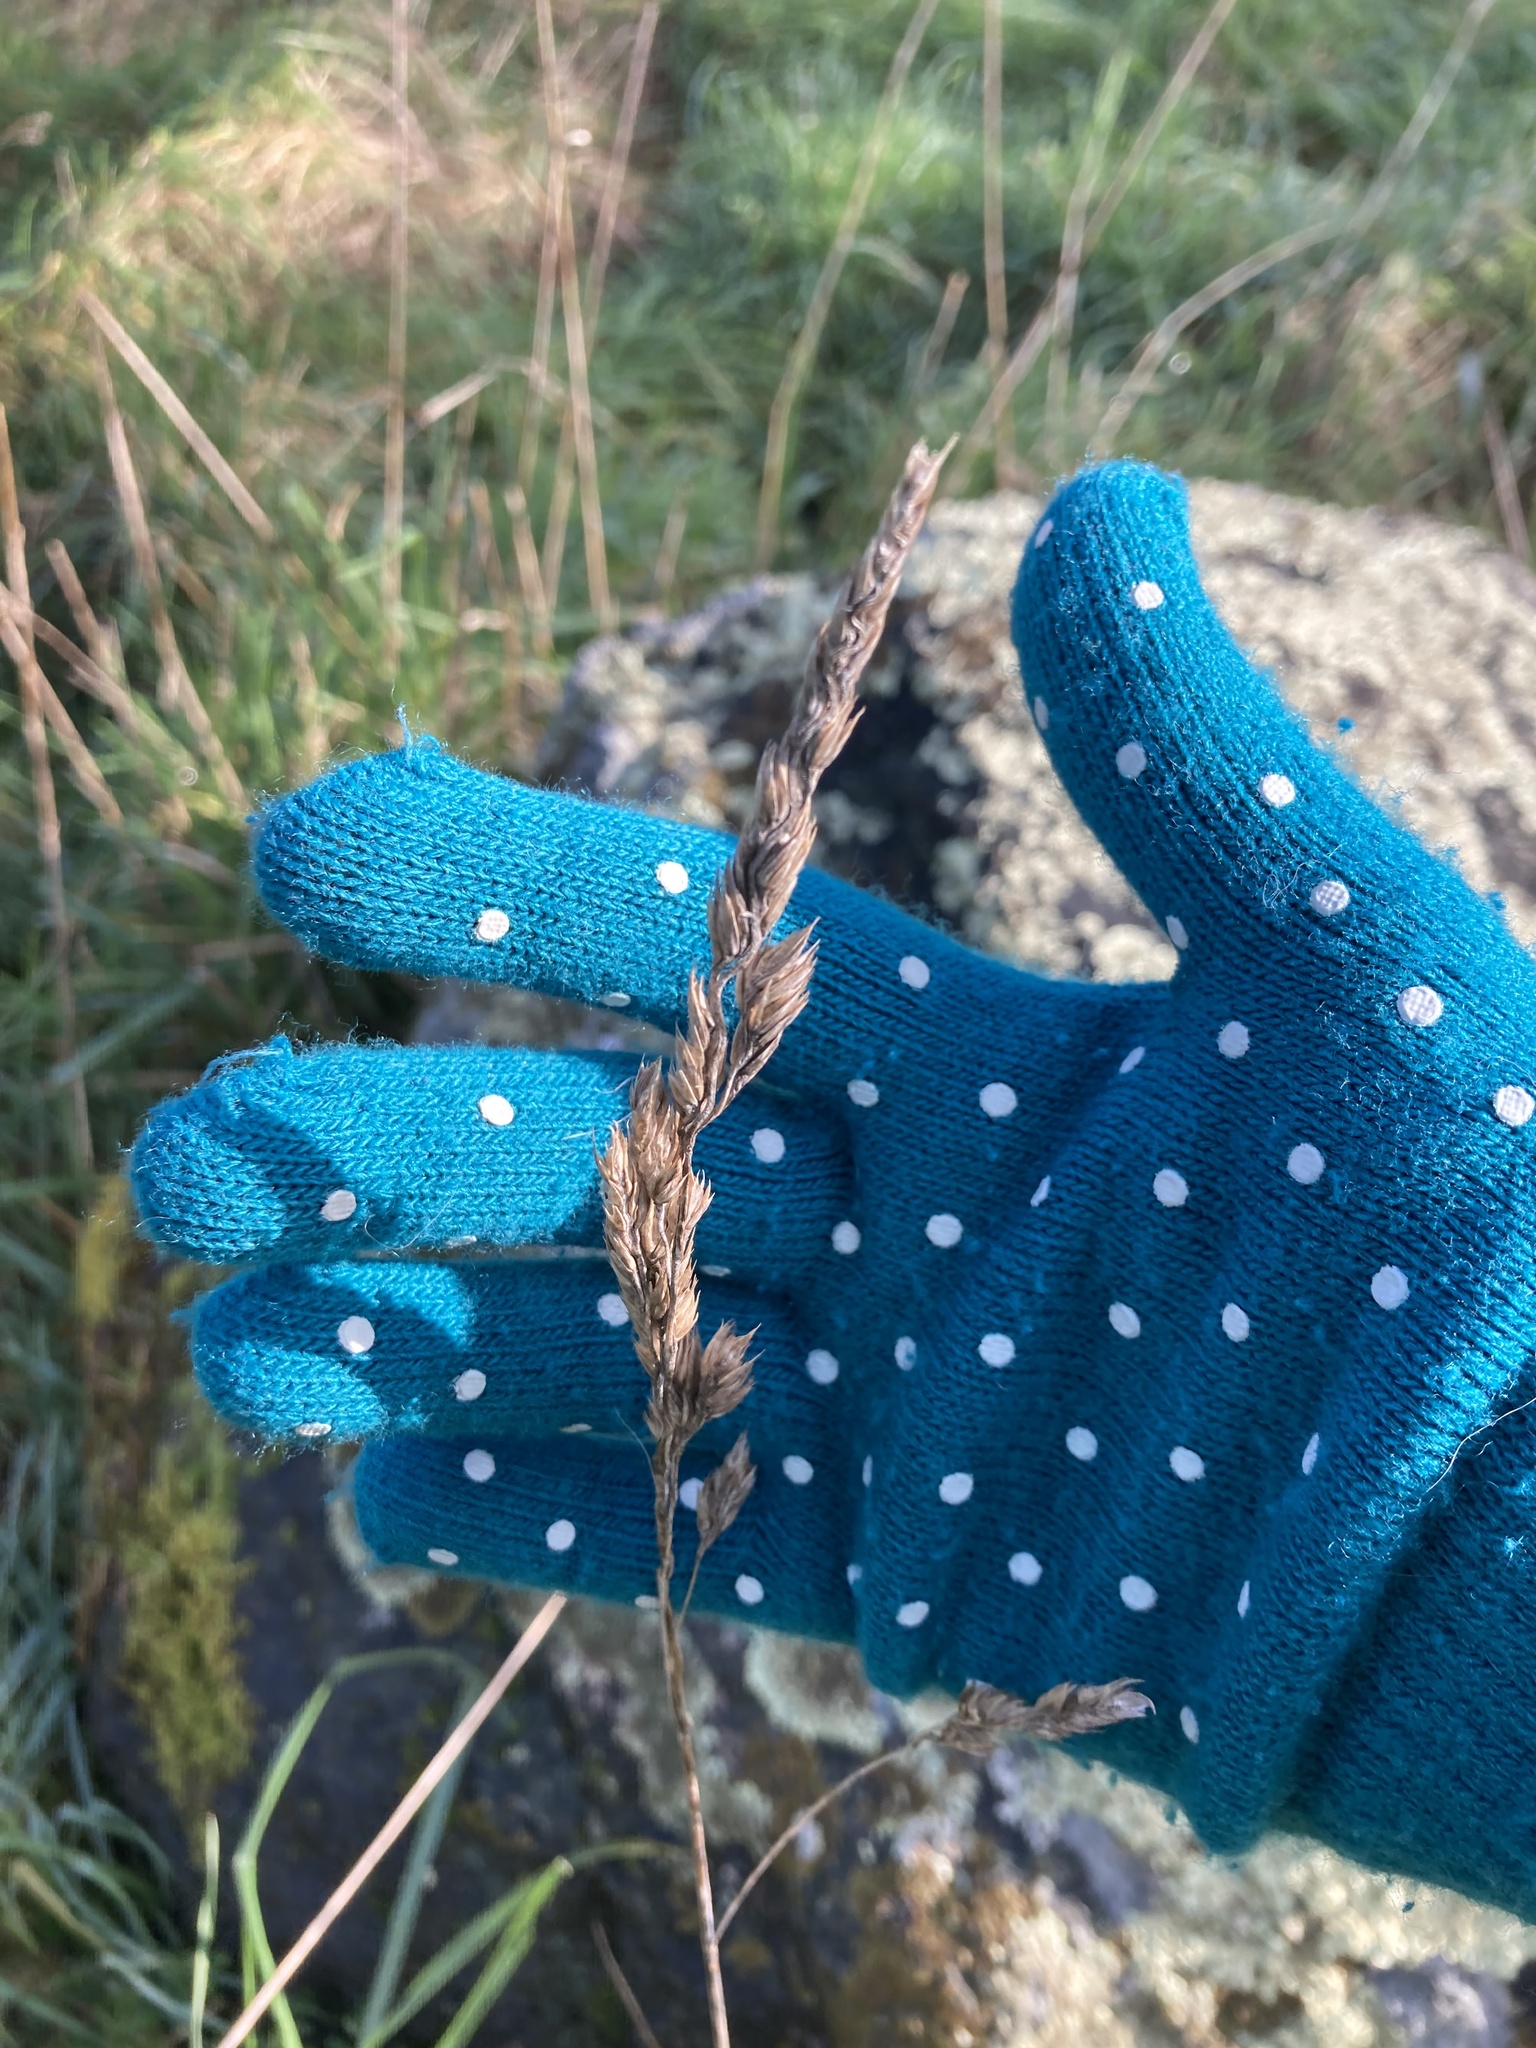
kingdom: Plantae
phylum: Tracheophyta
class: Liliopsida
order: Poales
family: Poaceae
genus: Dactylis
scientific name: Dactylis glomerata
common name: Orchardgrass
